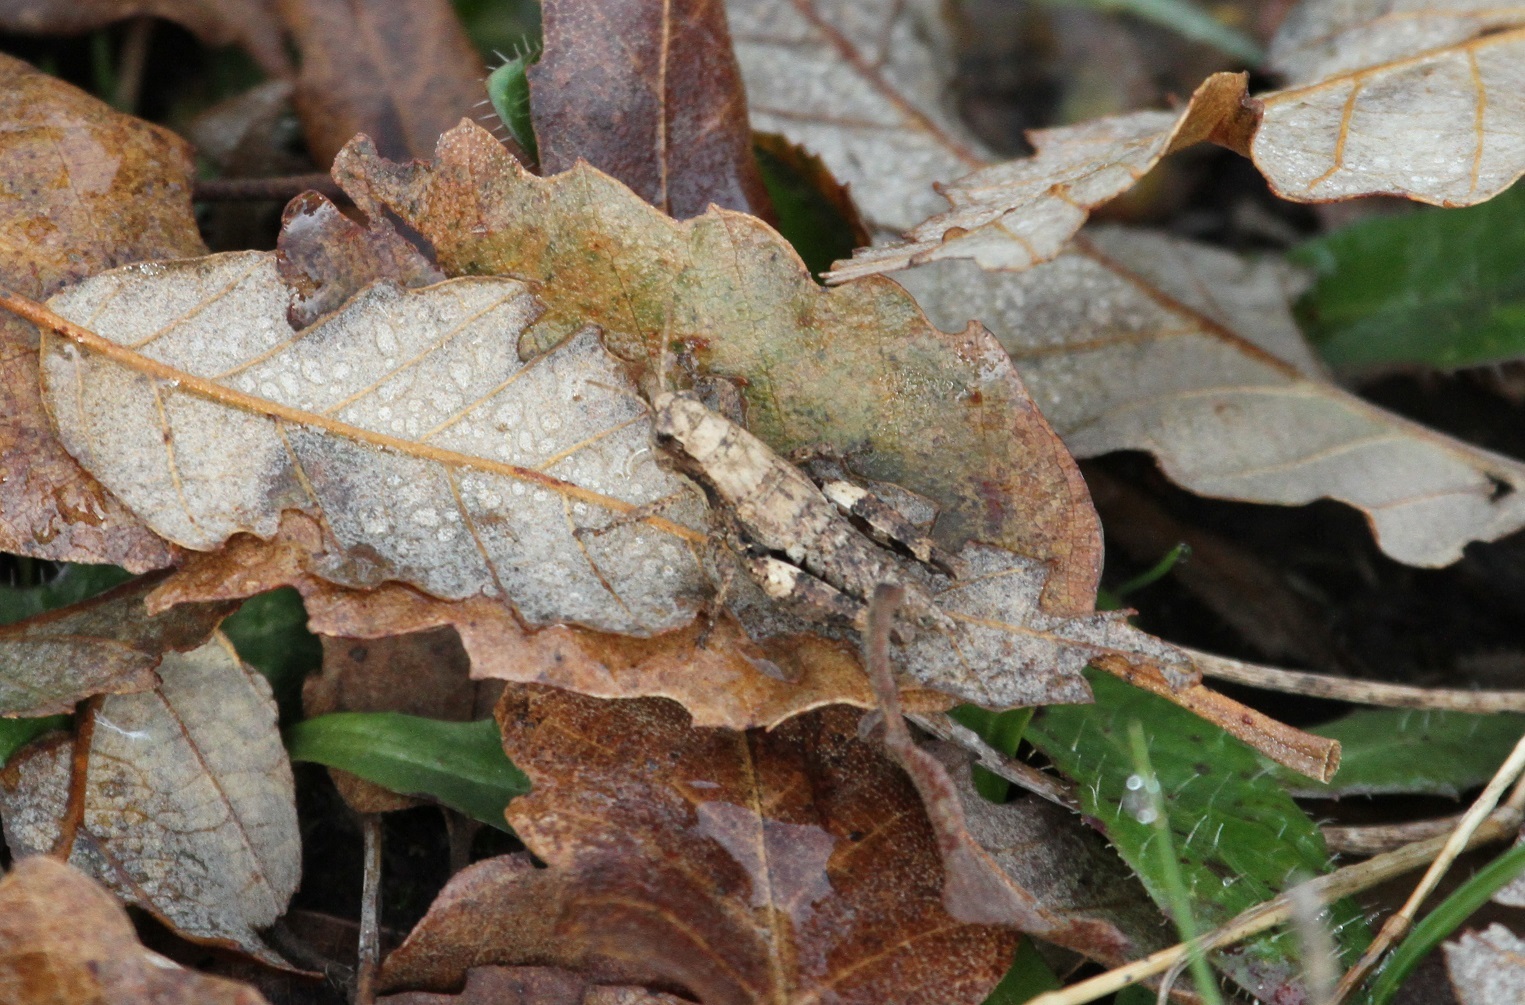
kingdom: Animalia
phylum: Arthropoda
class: Insecta
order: Orthoptera
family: Acrididae
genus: Pezotettix
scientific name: Pezotettix giornae
